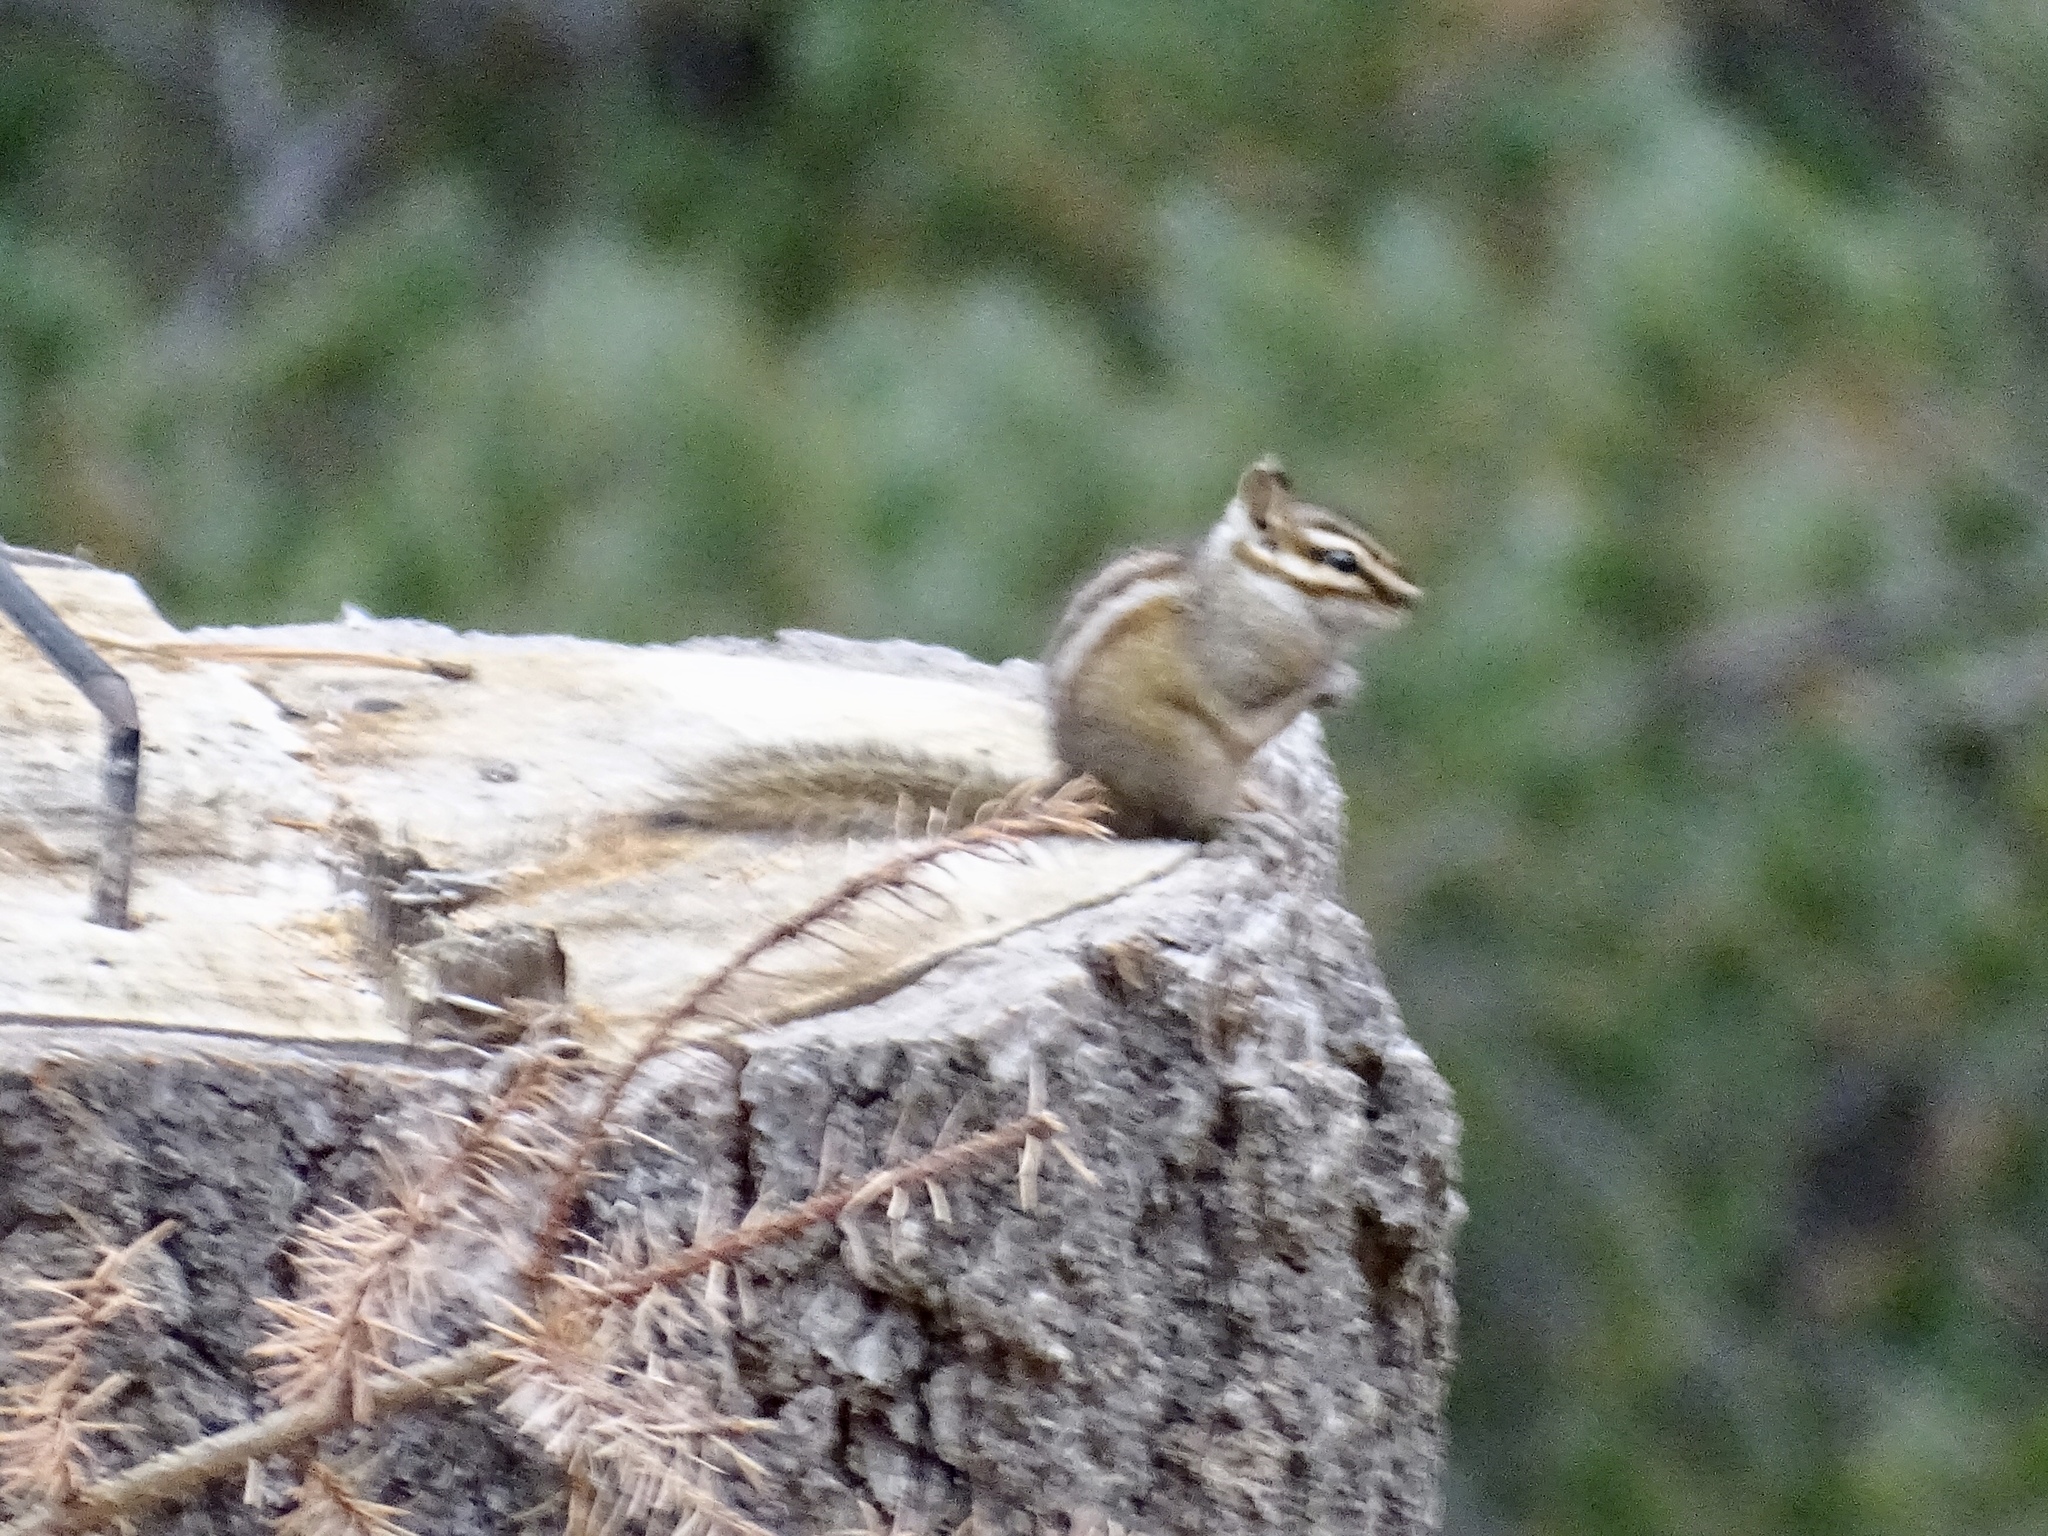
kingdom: Animalia
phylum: Chordata
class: Mammalia
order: Rodentia
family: Sciuridae
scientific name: Sciuridae
